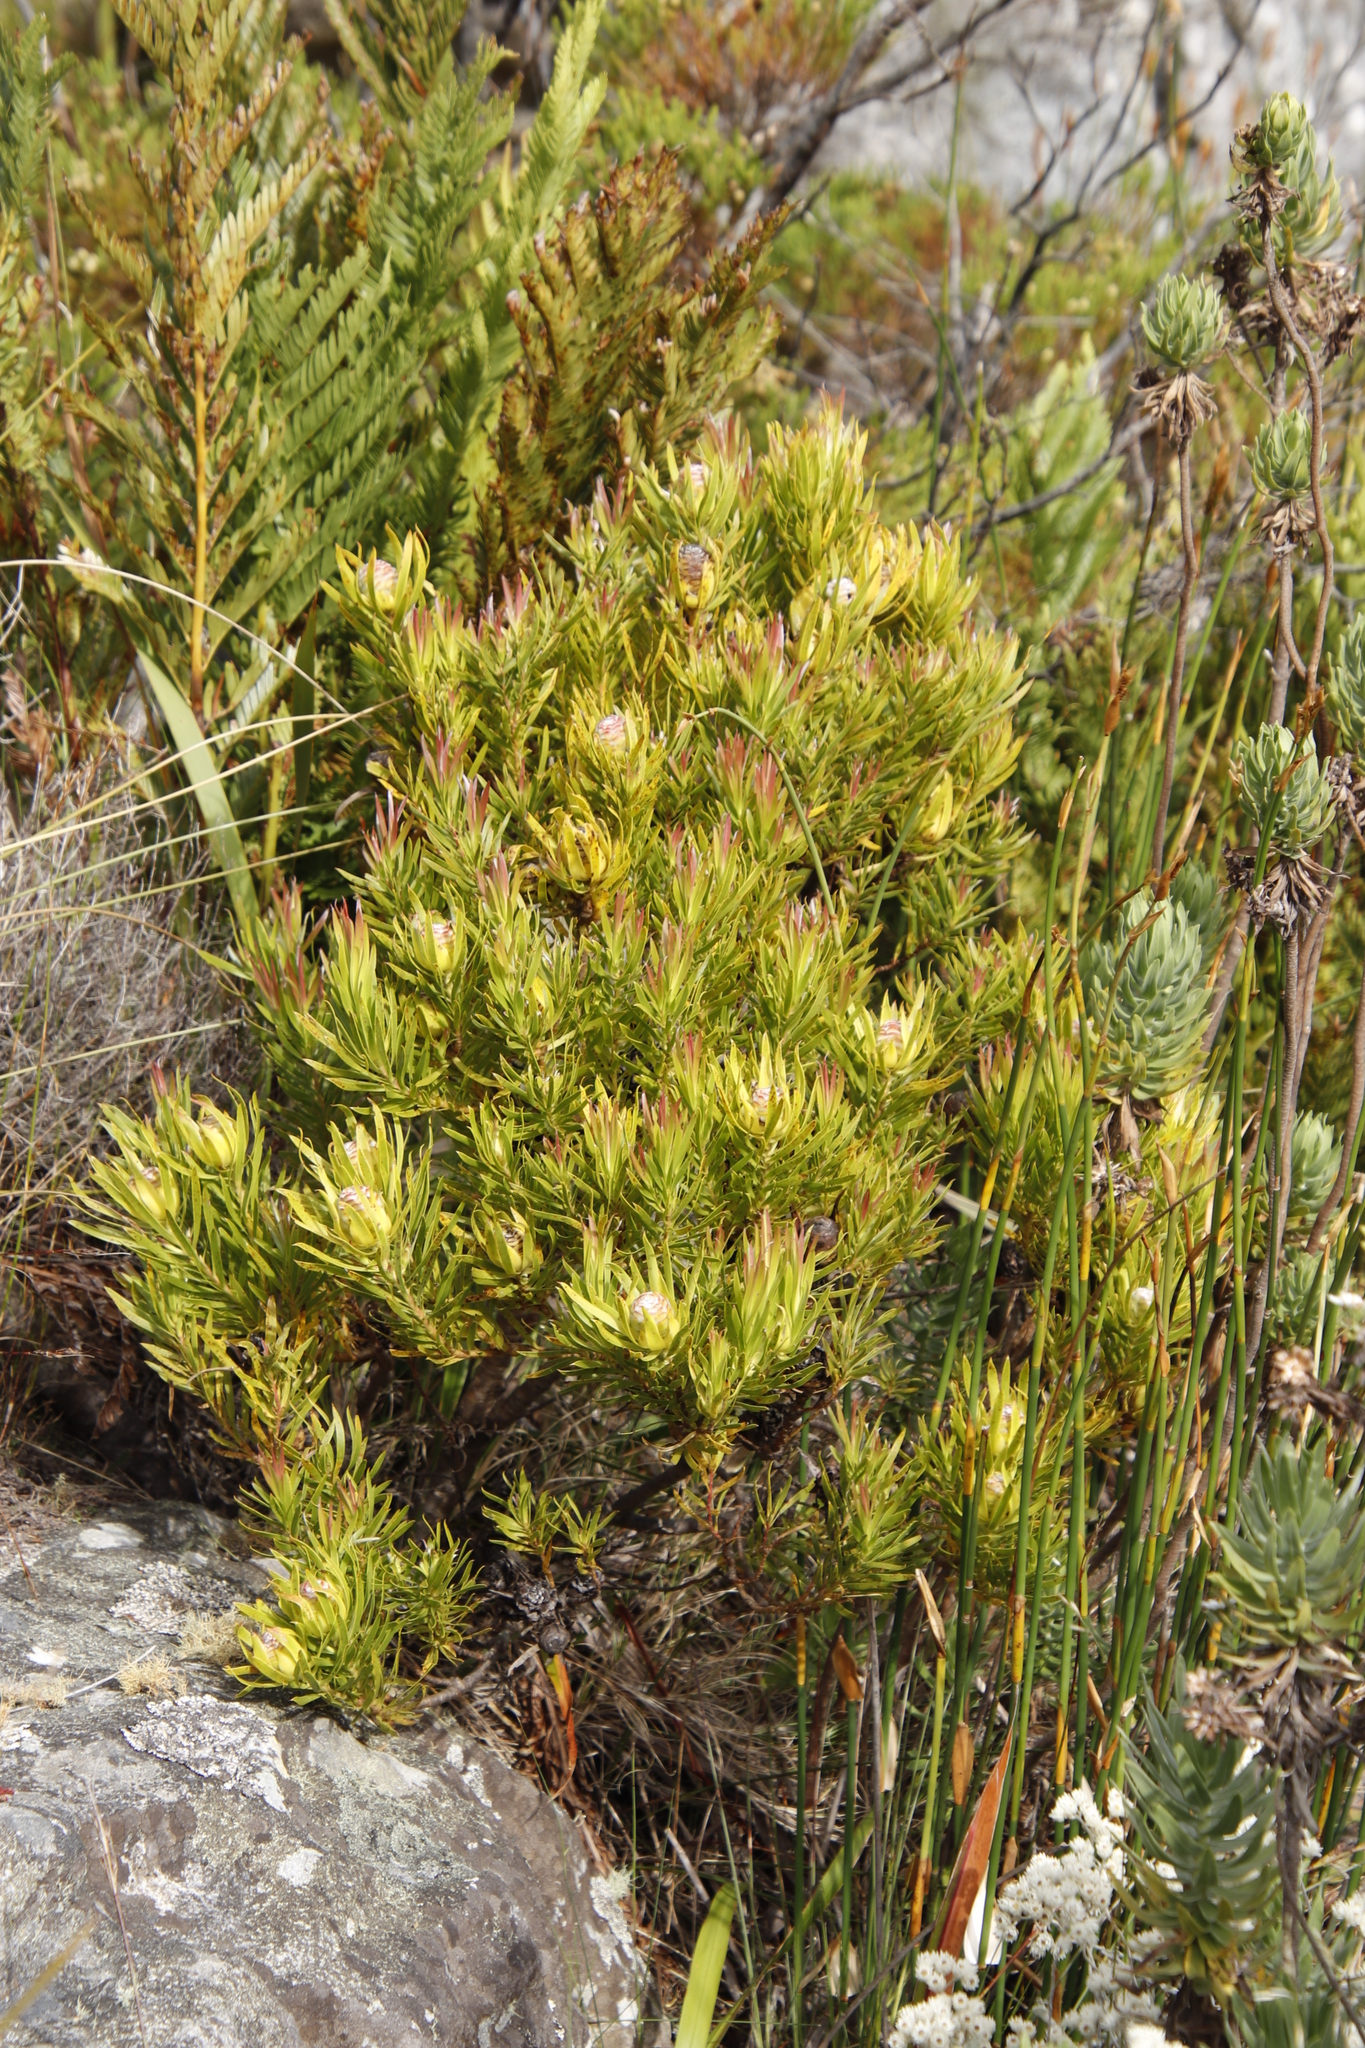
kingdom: Plantae
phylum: Tracheophyta
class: Magnoliopsida
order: Proteales
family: Proteaceae
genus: Leucadendron
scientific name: Leucadendron xanthoconus
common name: Sickle-leaf conebush
